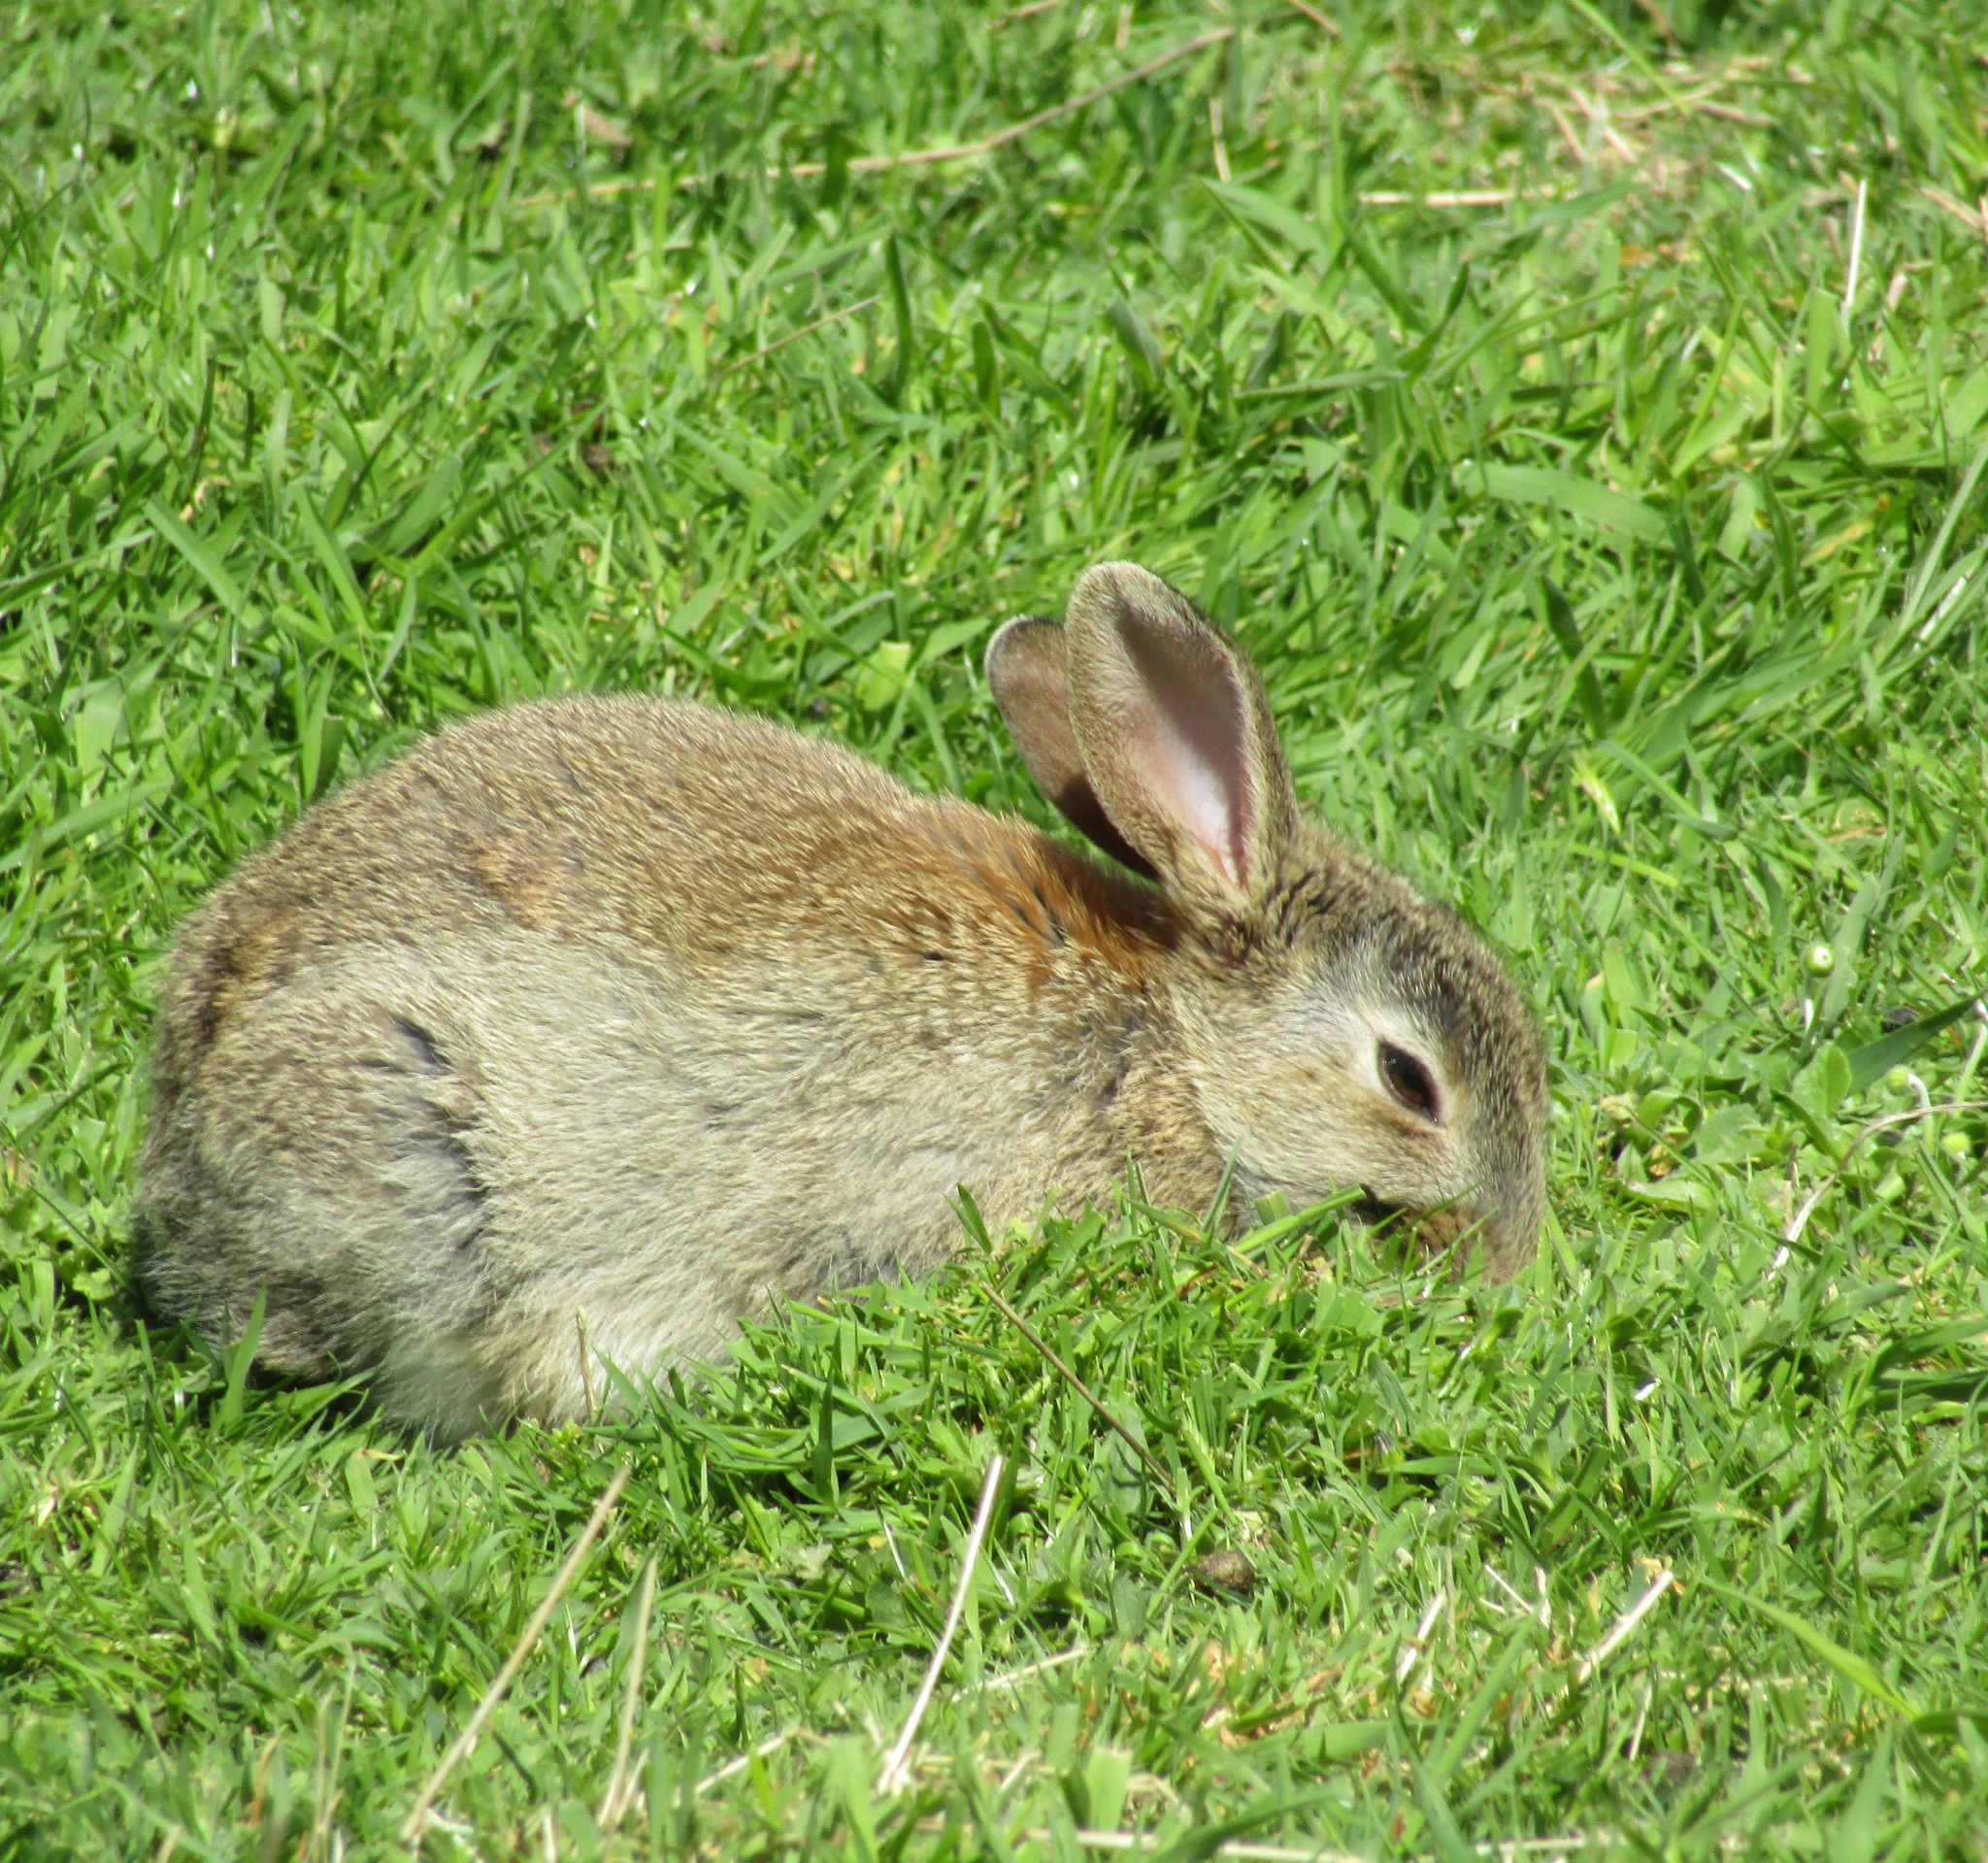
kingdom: Animalia
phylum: Chordata
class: Mammalia
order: Lagomorpha
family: Leporidae
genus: Oryctolagus
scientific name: Oryctolagus cuniculus
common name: European rabbit
